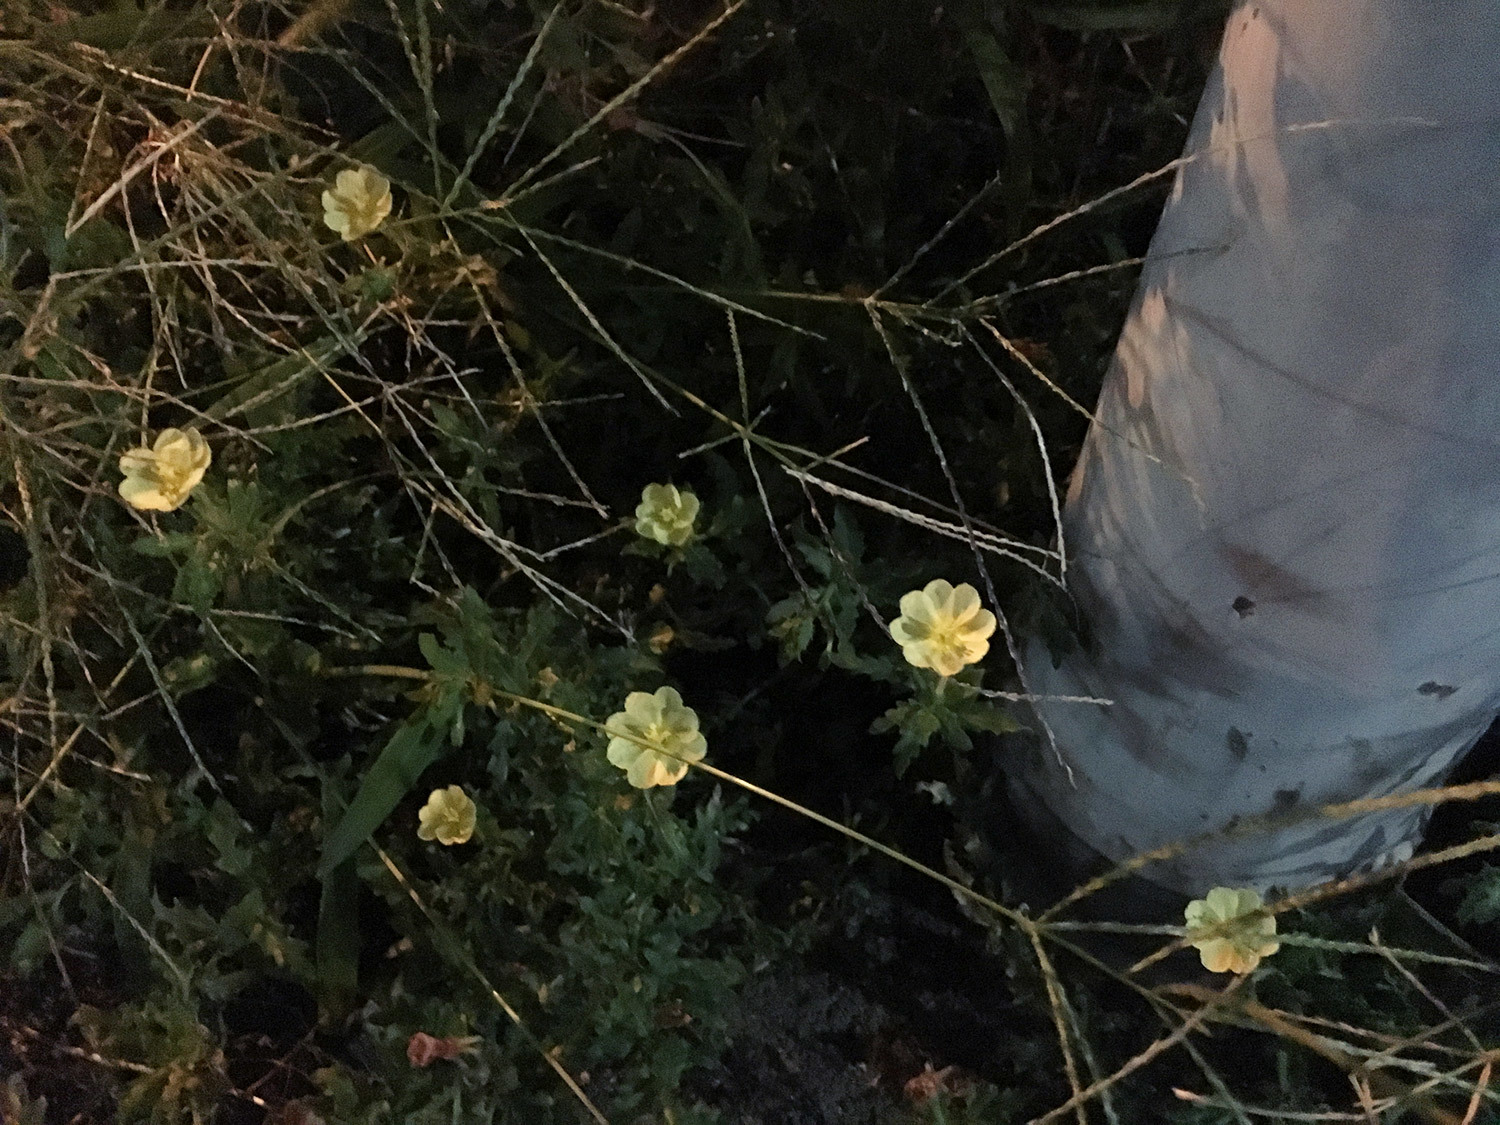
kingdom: Plantae
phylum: Tracheophyta
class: Magnoliopsida
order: Myrtales
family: Onagraceae
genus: Oenothera
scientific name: Oenothera laciniata
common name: Cut-leaved evening-primrose
